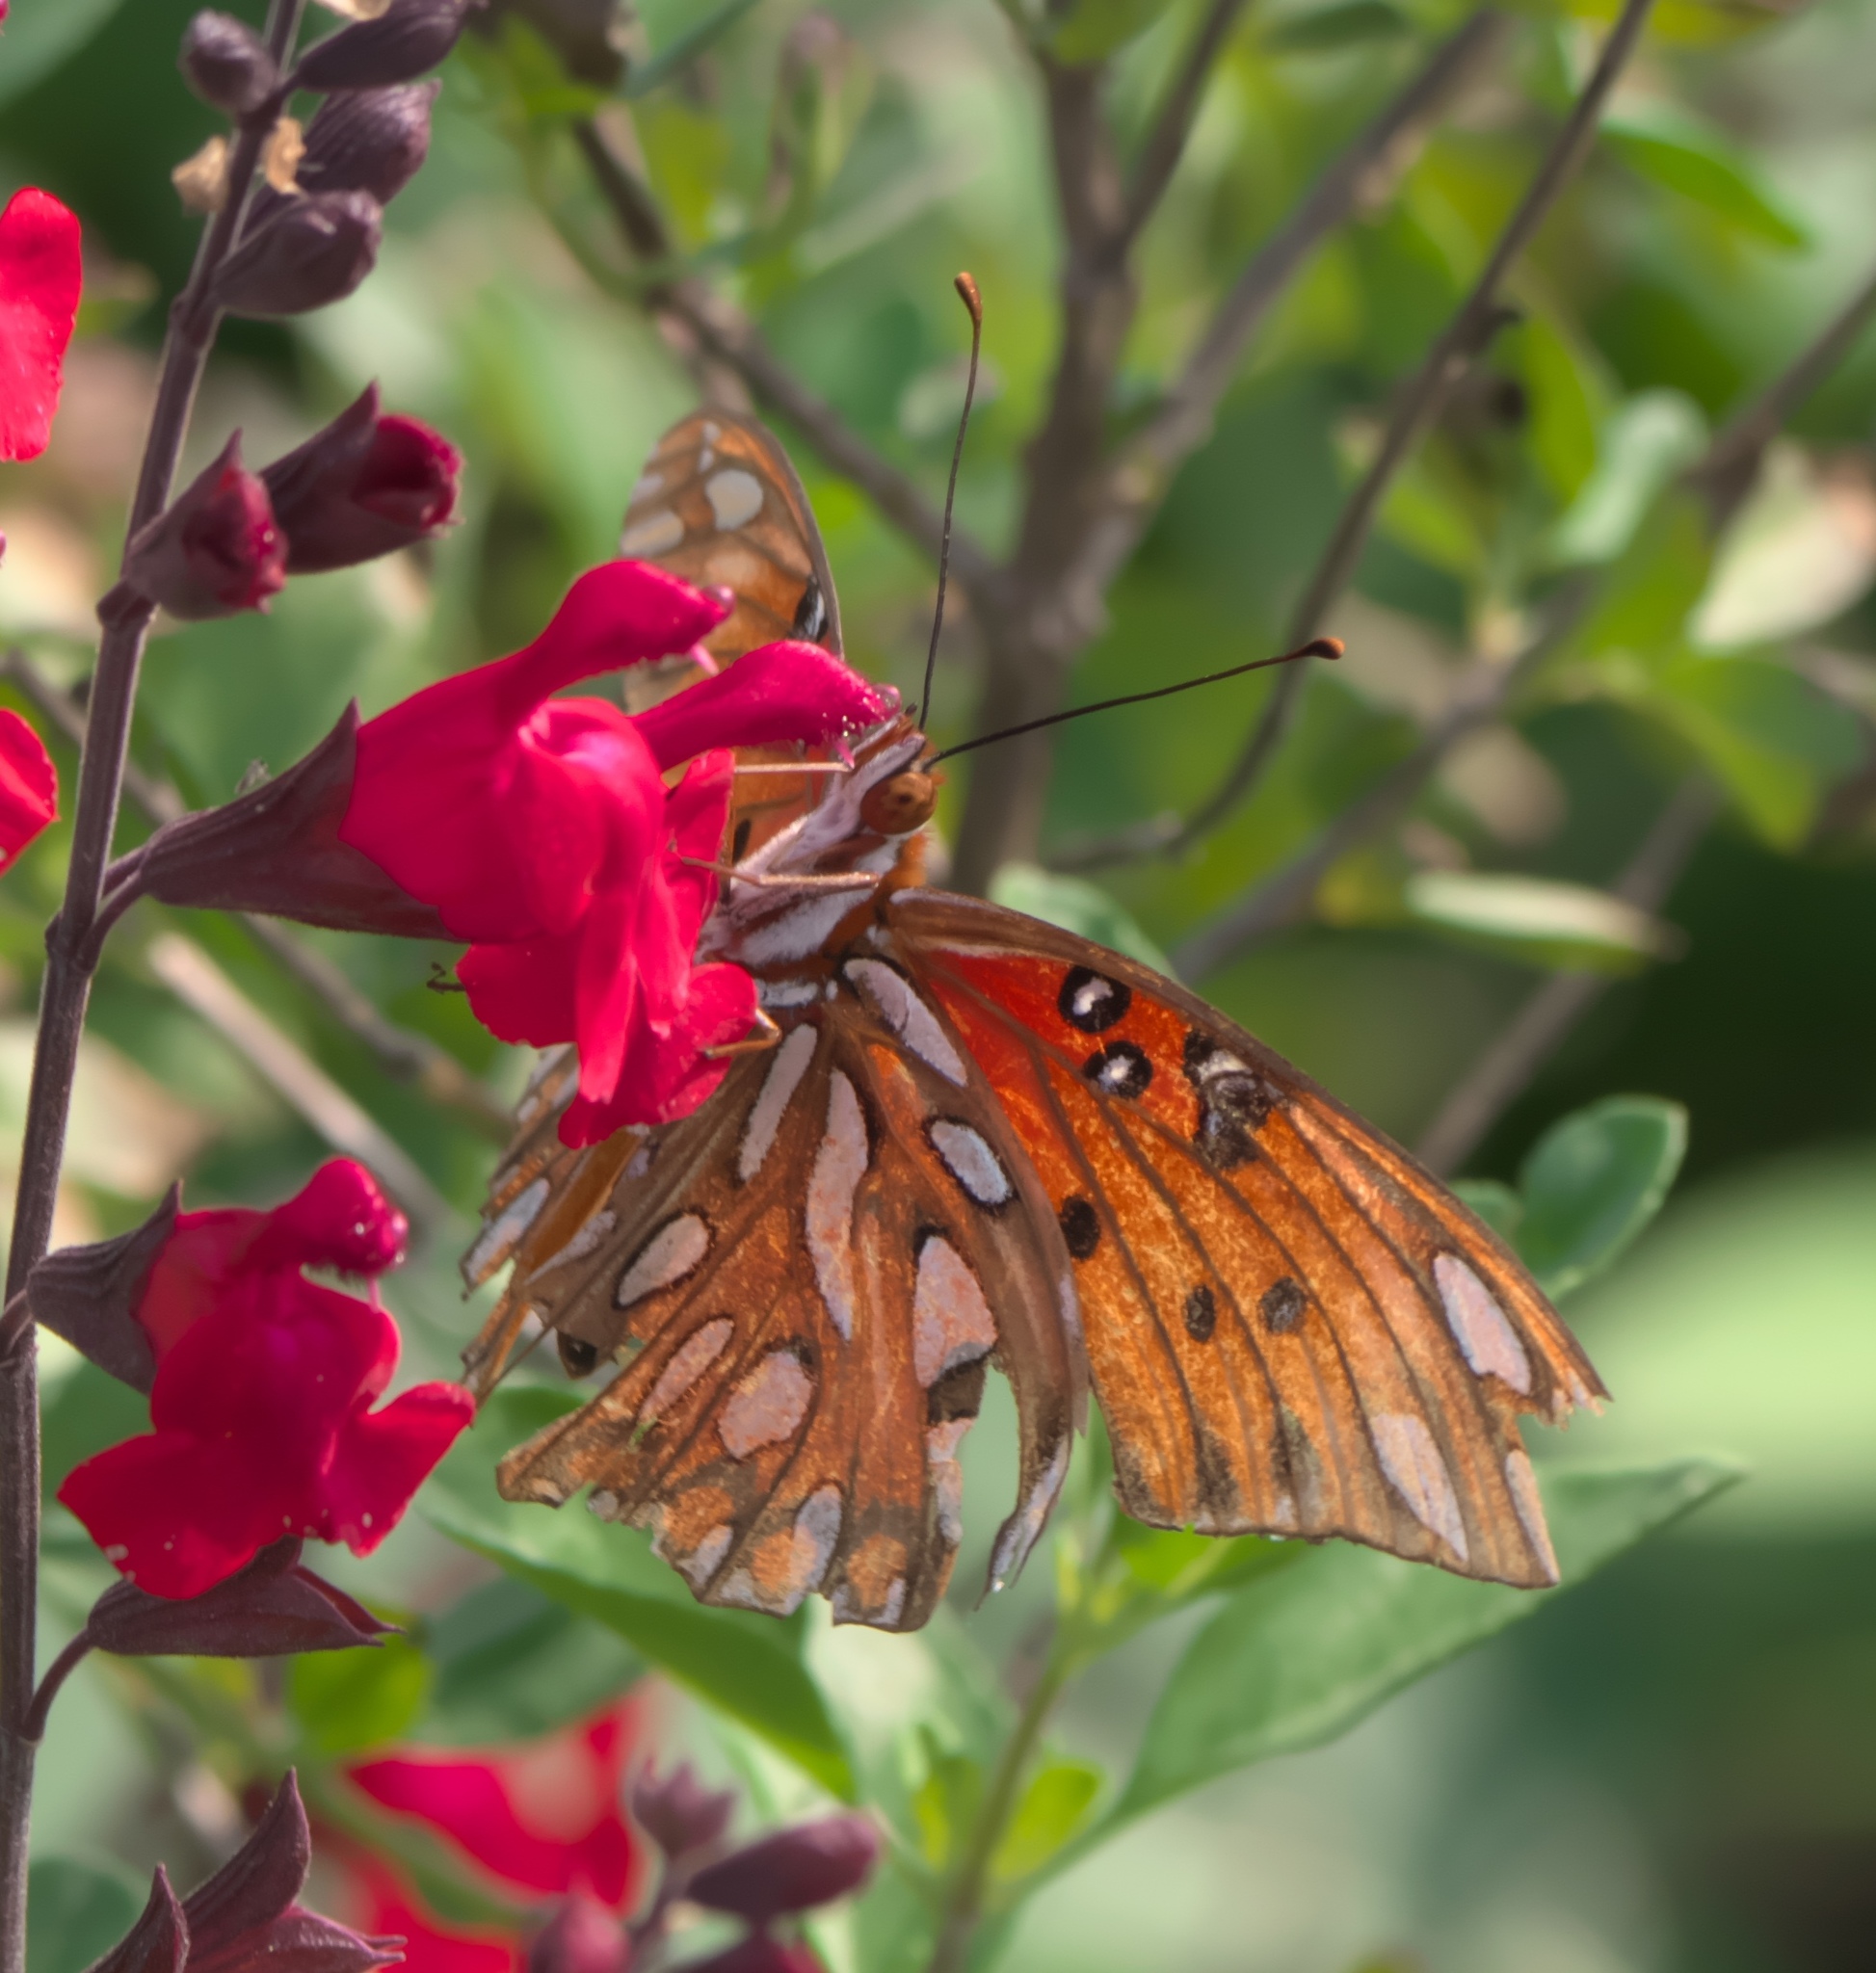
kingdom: Animalia
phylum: Arthropoda
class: Insecta
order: Lepidoptera
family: Nymphalidae
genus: Dione
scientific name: Dione vanillae
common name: Gulf fritillary
